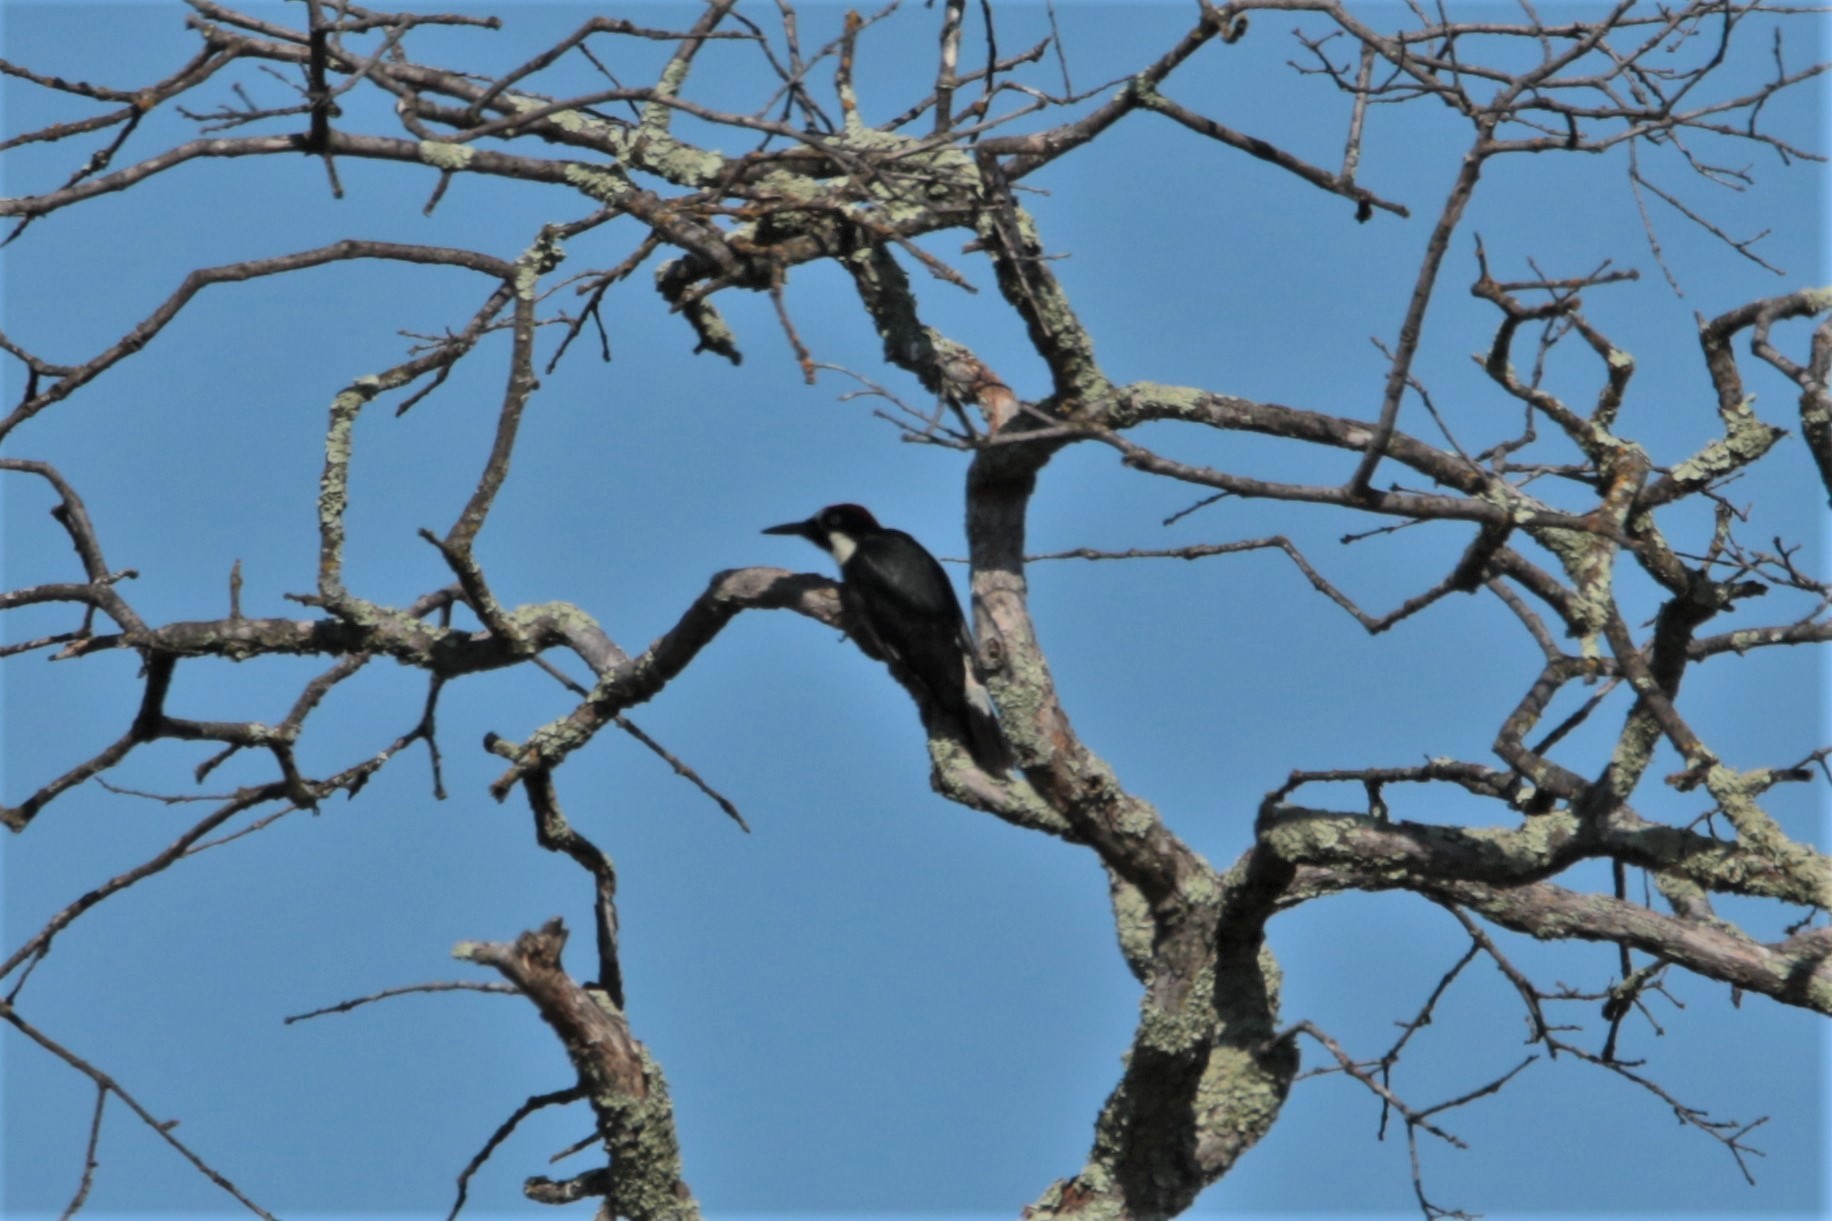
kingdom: Animalia
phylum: Chordata
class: Aves
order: Piciformes
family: Picidae
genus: Melanerpes
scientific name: Melanerpes formicivorus
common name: Acorn woodpecker
